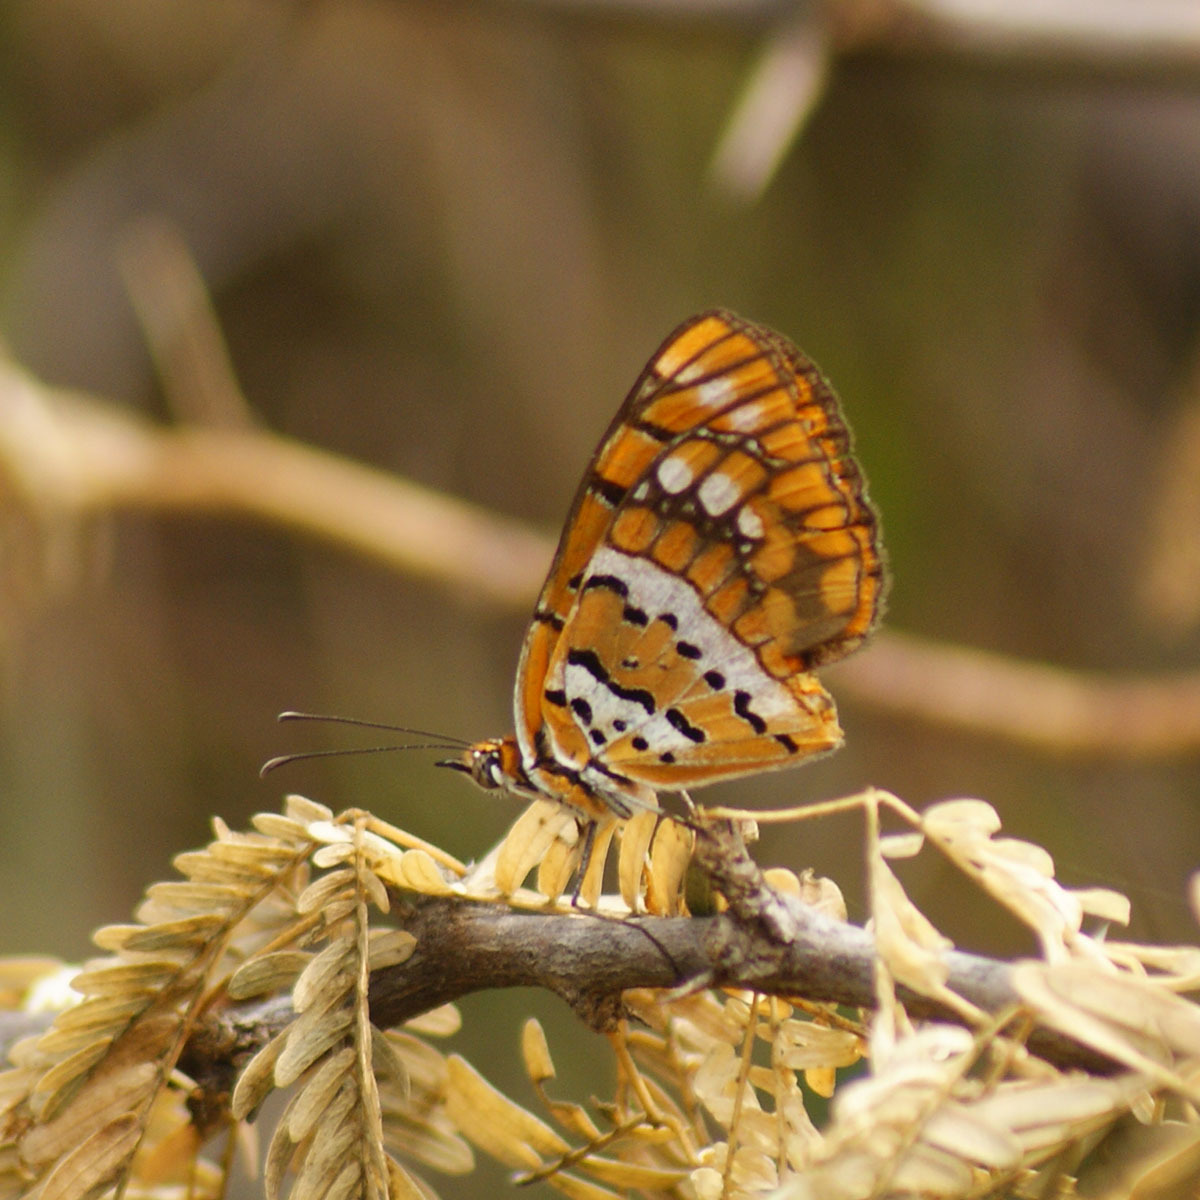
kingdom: Animalia
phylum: Arthropoda
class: Insecta
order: Lepidoptera
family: Nymphalidae
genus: Byblia
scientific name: Byblia ilithyia
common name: Spotted joker
